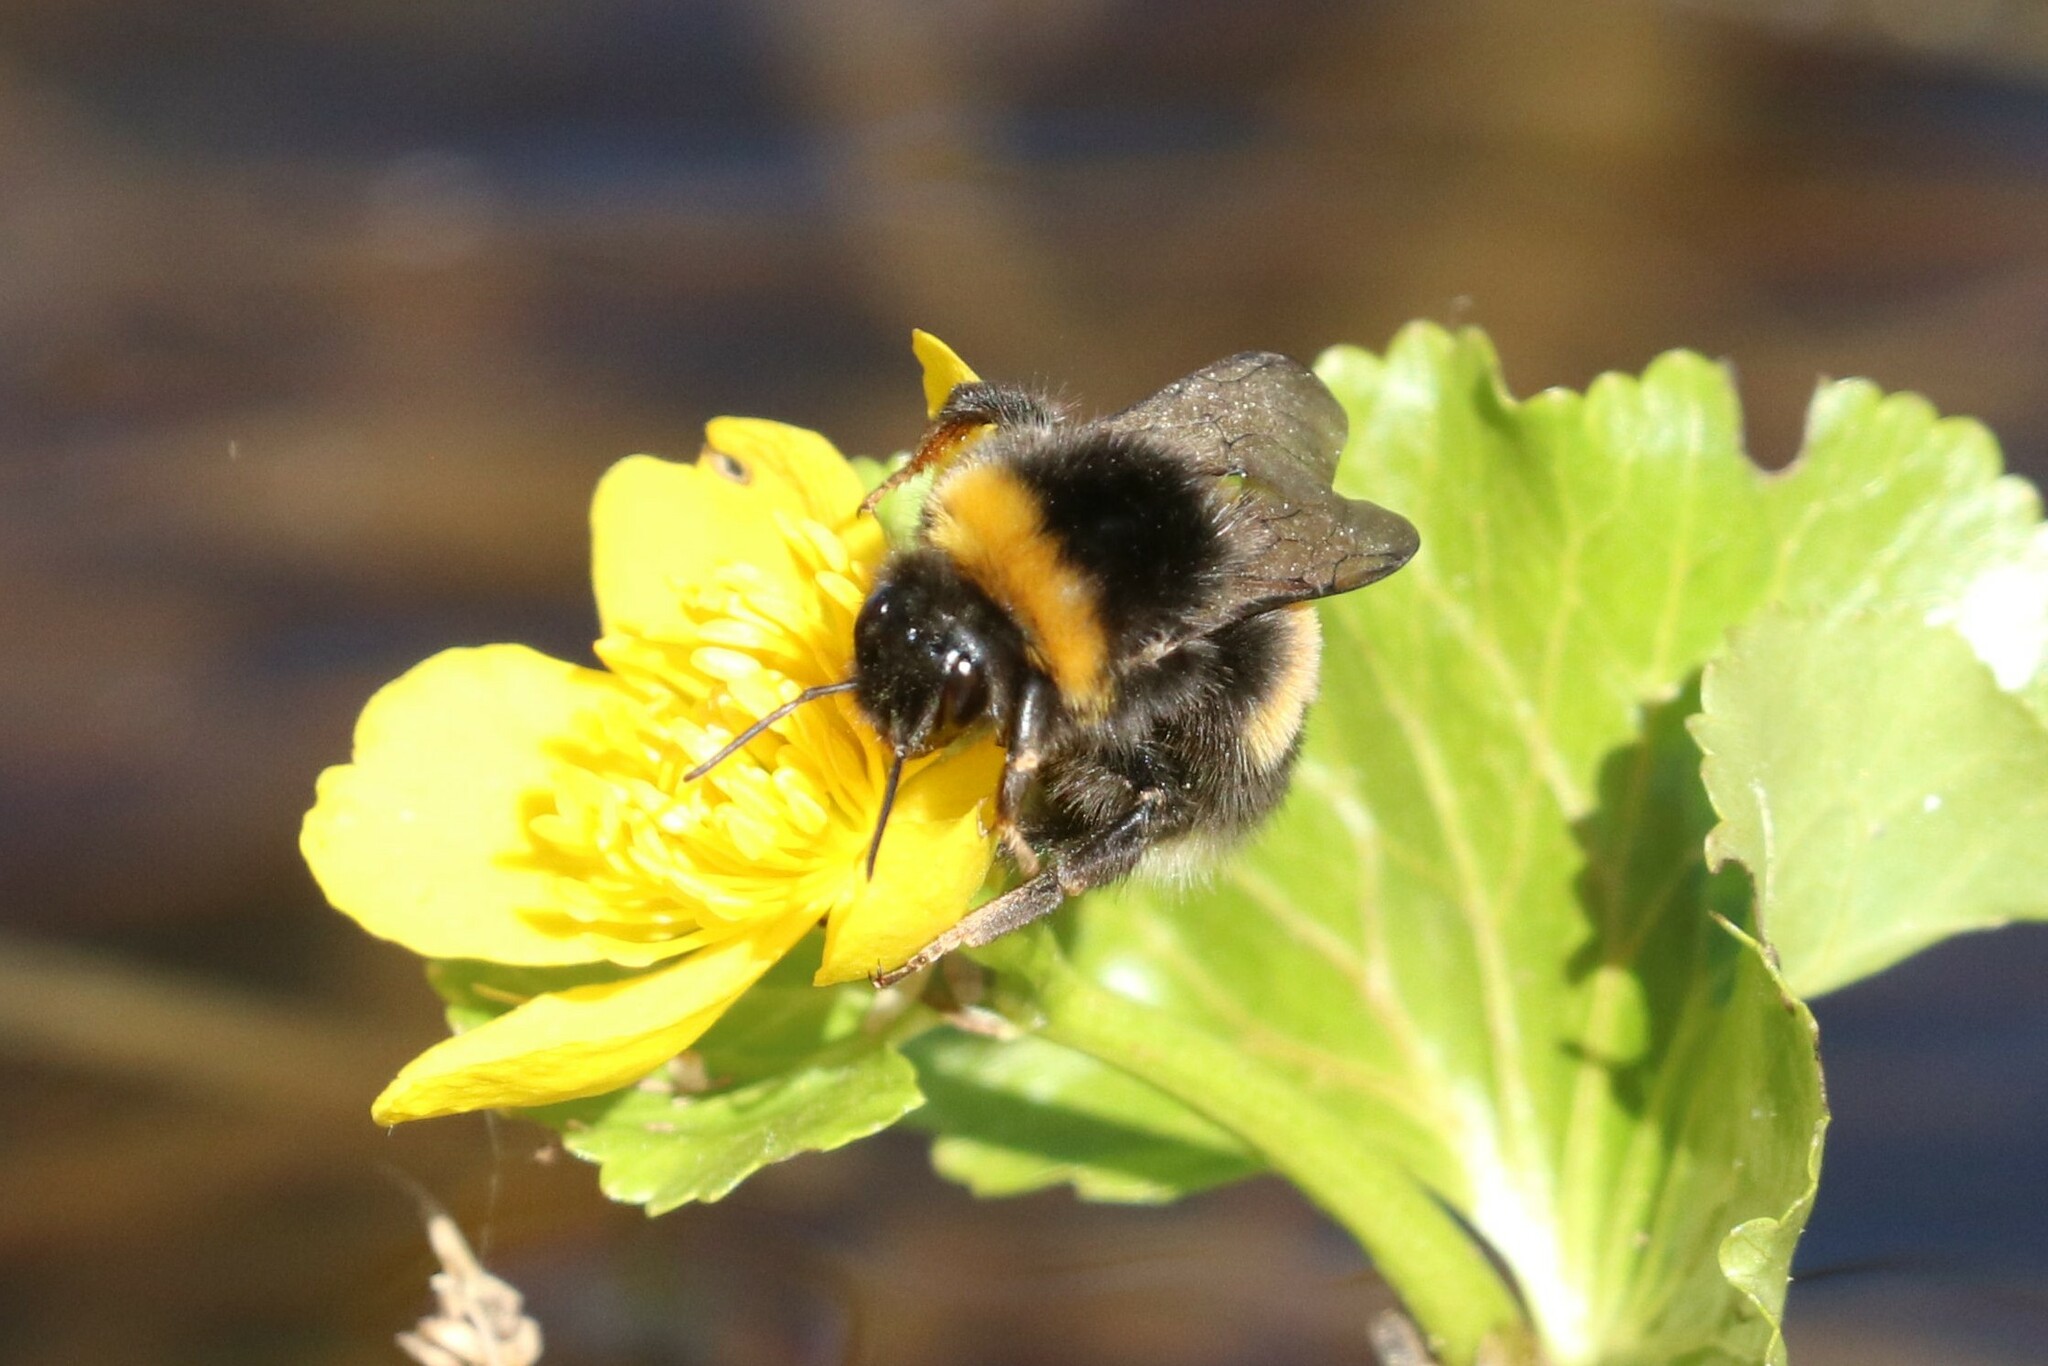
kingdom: Animalia
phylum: Arthropoda
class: Insecta
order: Hymenoptera
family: Apidae
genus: Bombus
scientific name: Bombus
